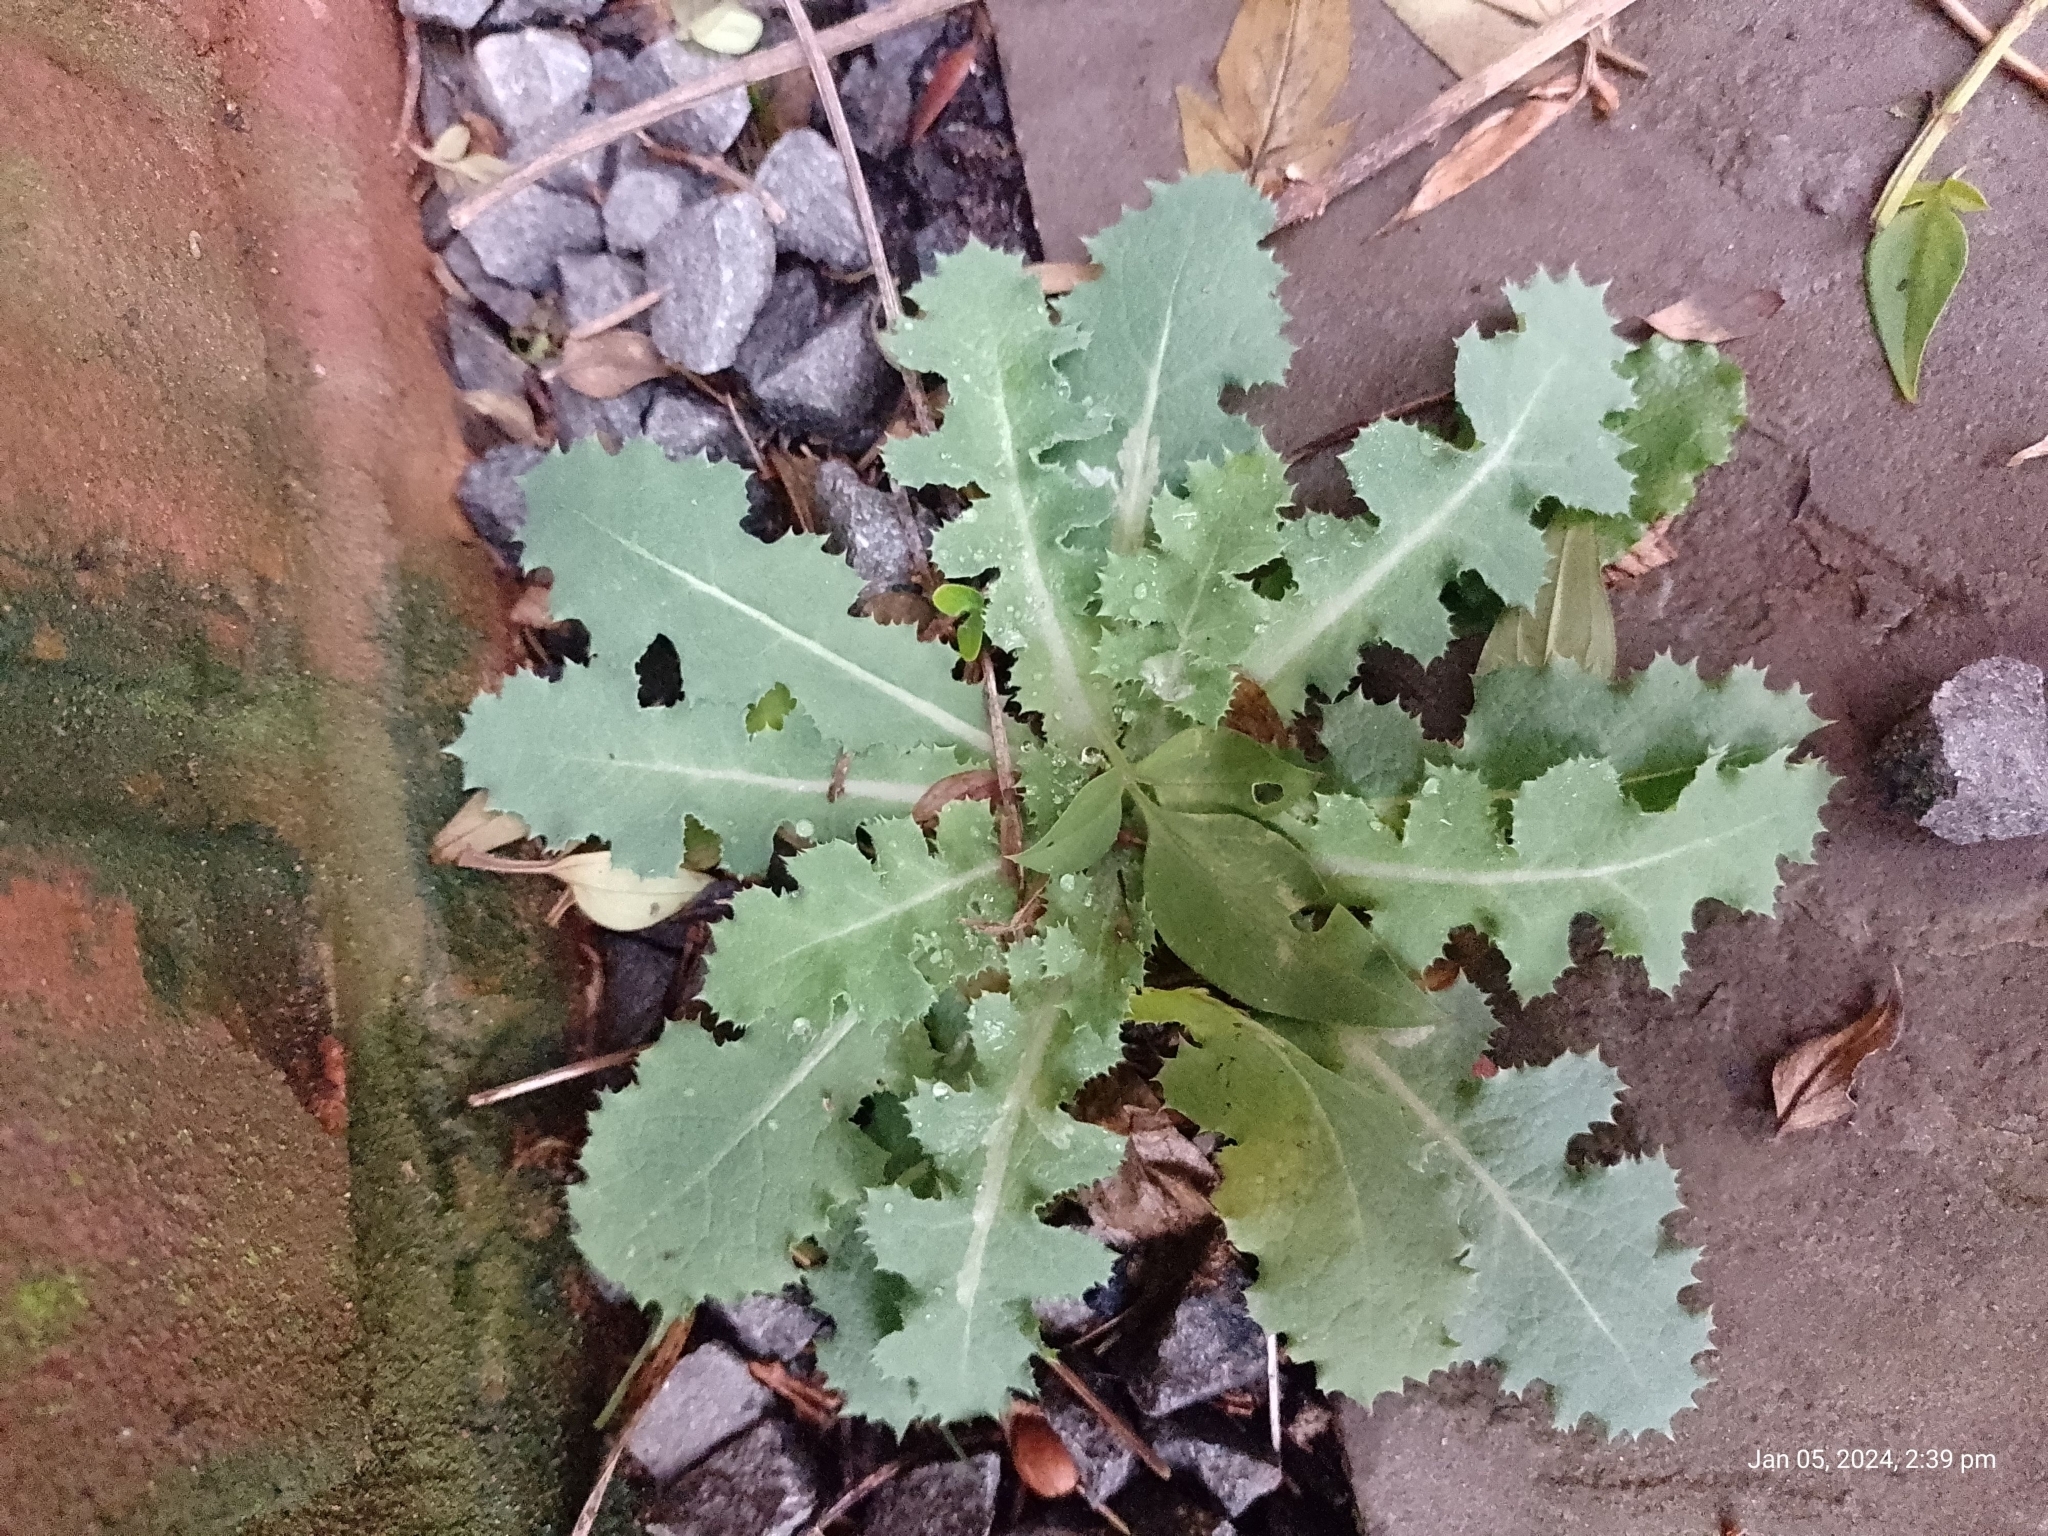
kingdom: Plantae
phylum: Tracheophyta
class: Magnoliopsida
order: Asterales
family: Asteraceae
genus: Lactuca
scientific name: Lactuca virosa
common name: Great lettuce
